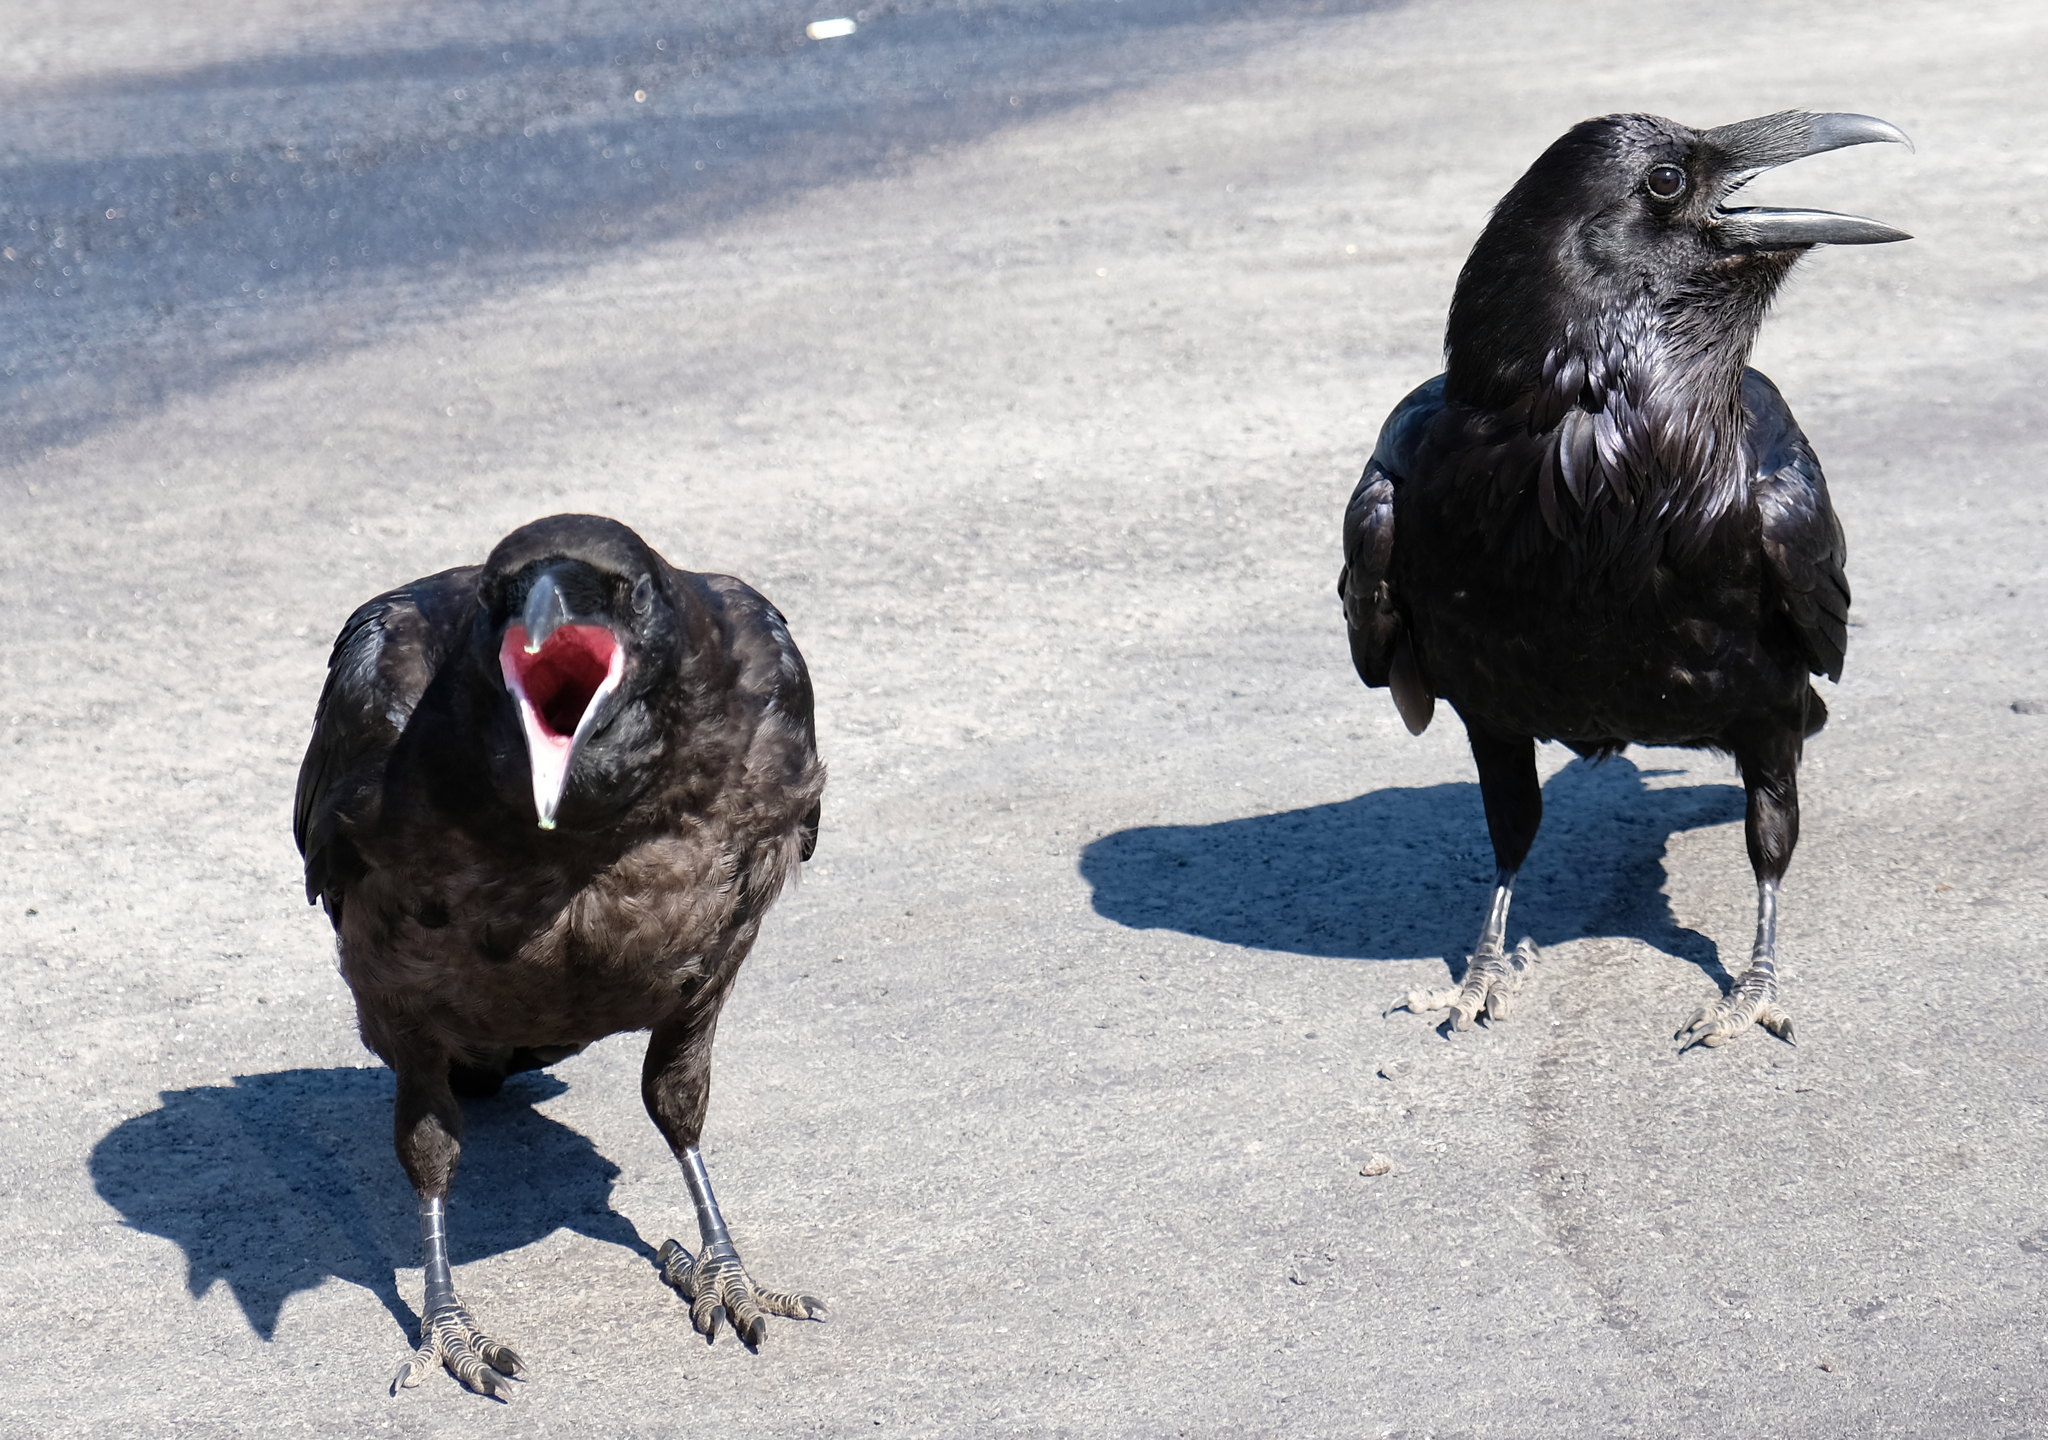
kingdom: Animalia
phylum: Chordata
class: Aves
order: Passeriformes
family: Corvidae
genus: Corvus
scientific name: Corvus corax
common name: Common raven
